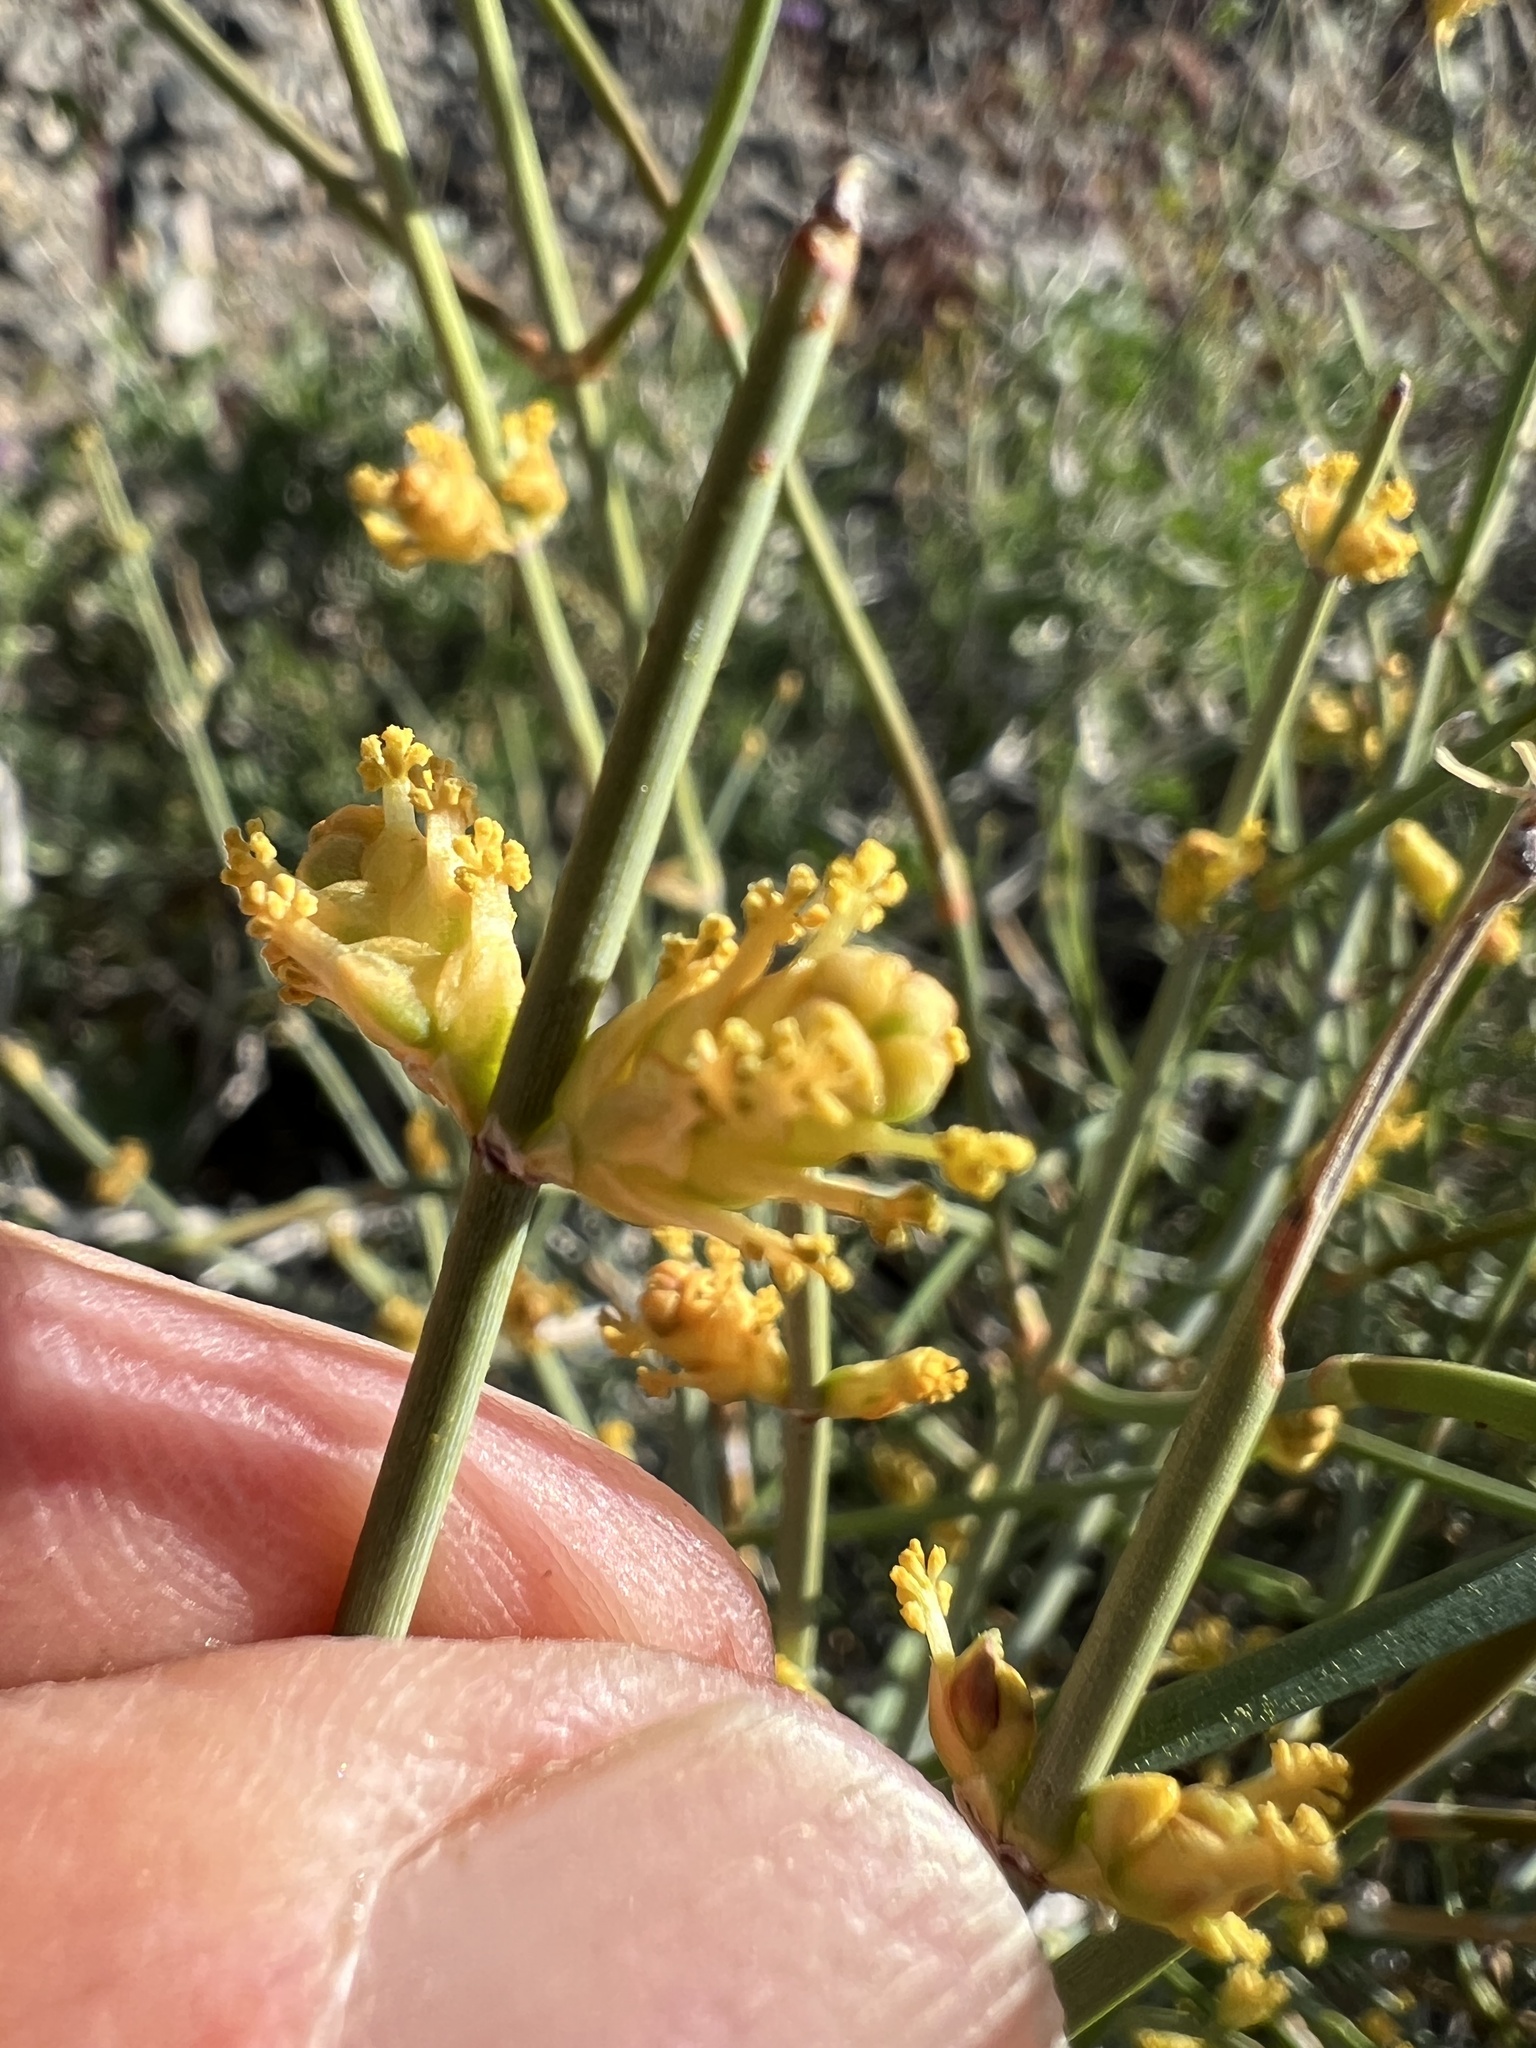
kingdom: Plantae
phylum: Tracheophyta
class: Gnetopsida
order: Ephedrales
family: Ephedraceae
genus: Ephedra
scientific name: Ephedra nevadensis
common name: Gray ephedra
